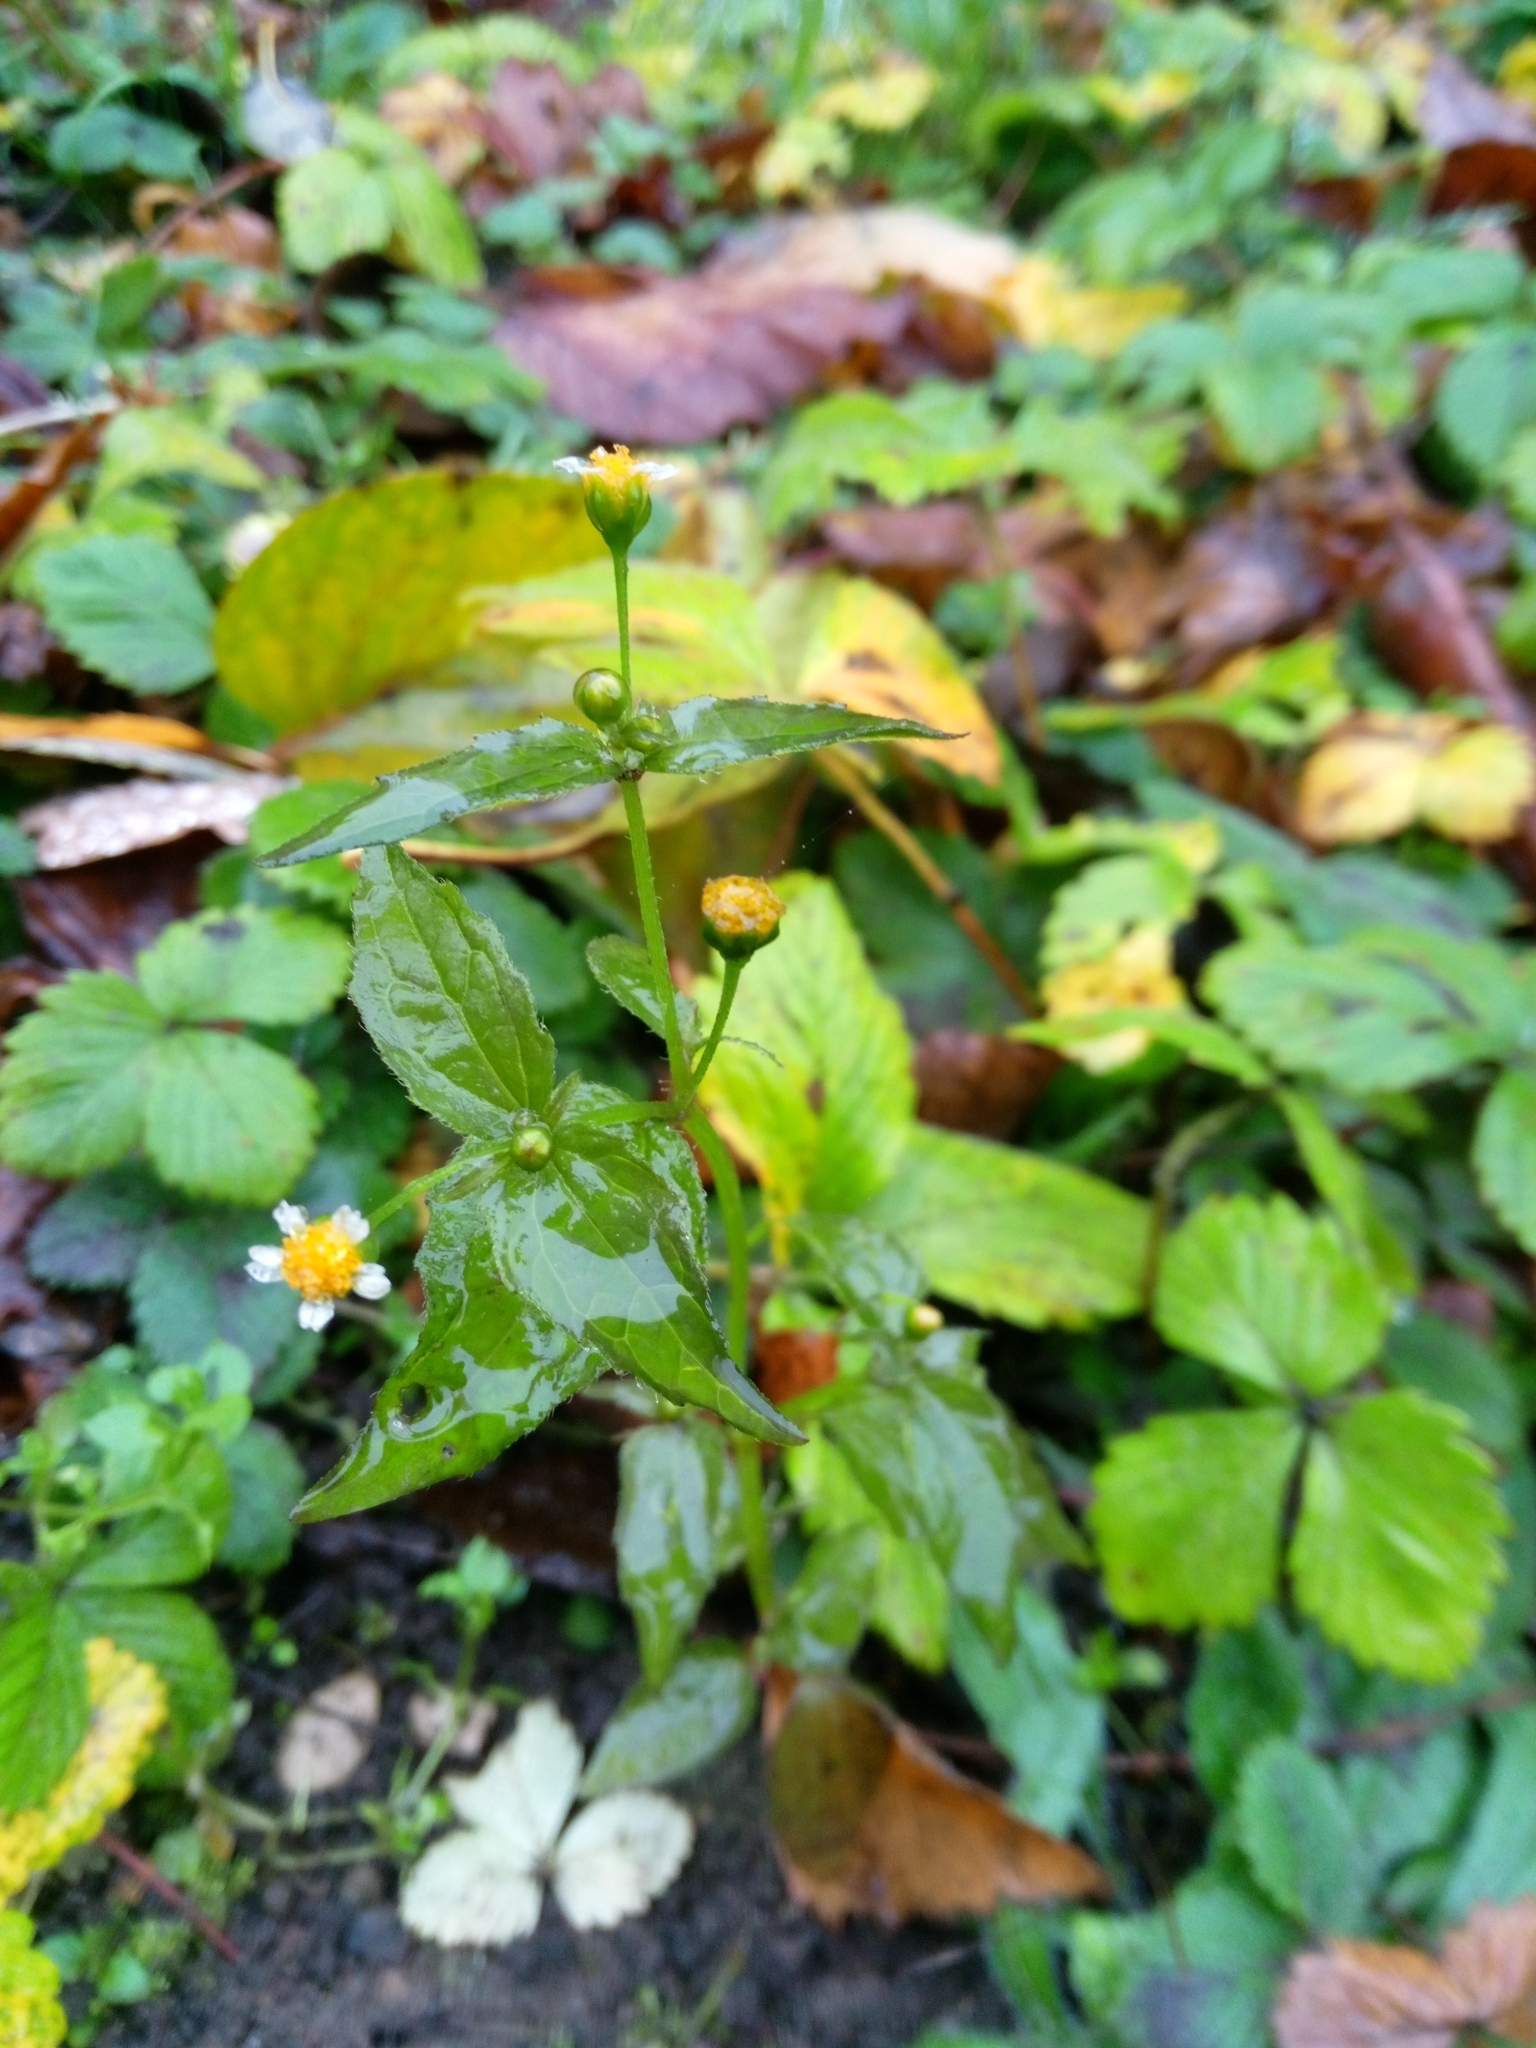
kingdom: Plantae
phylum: Tracheophyta
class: Magnoliopsida
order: Asterales
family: Asteraceae
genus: Galinsoga
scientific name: Galinsoga parviflora
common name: Gallant soldier
